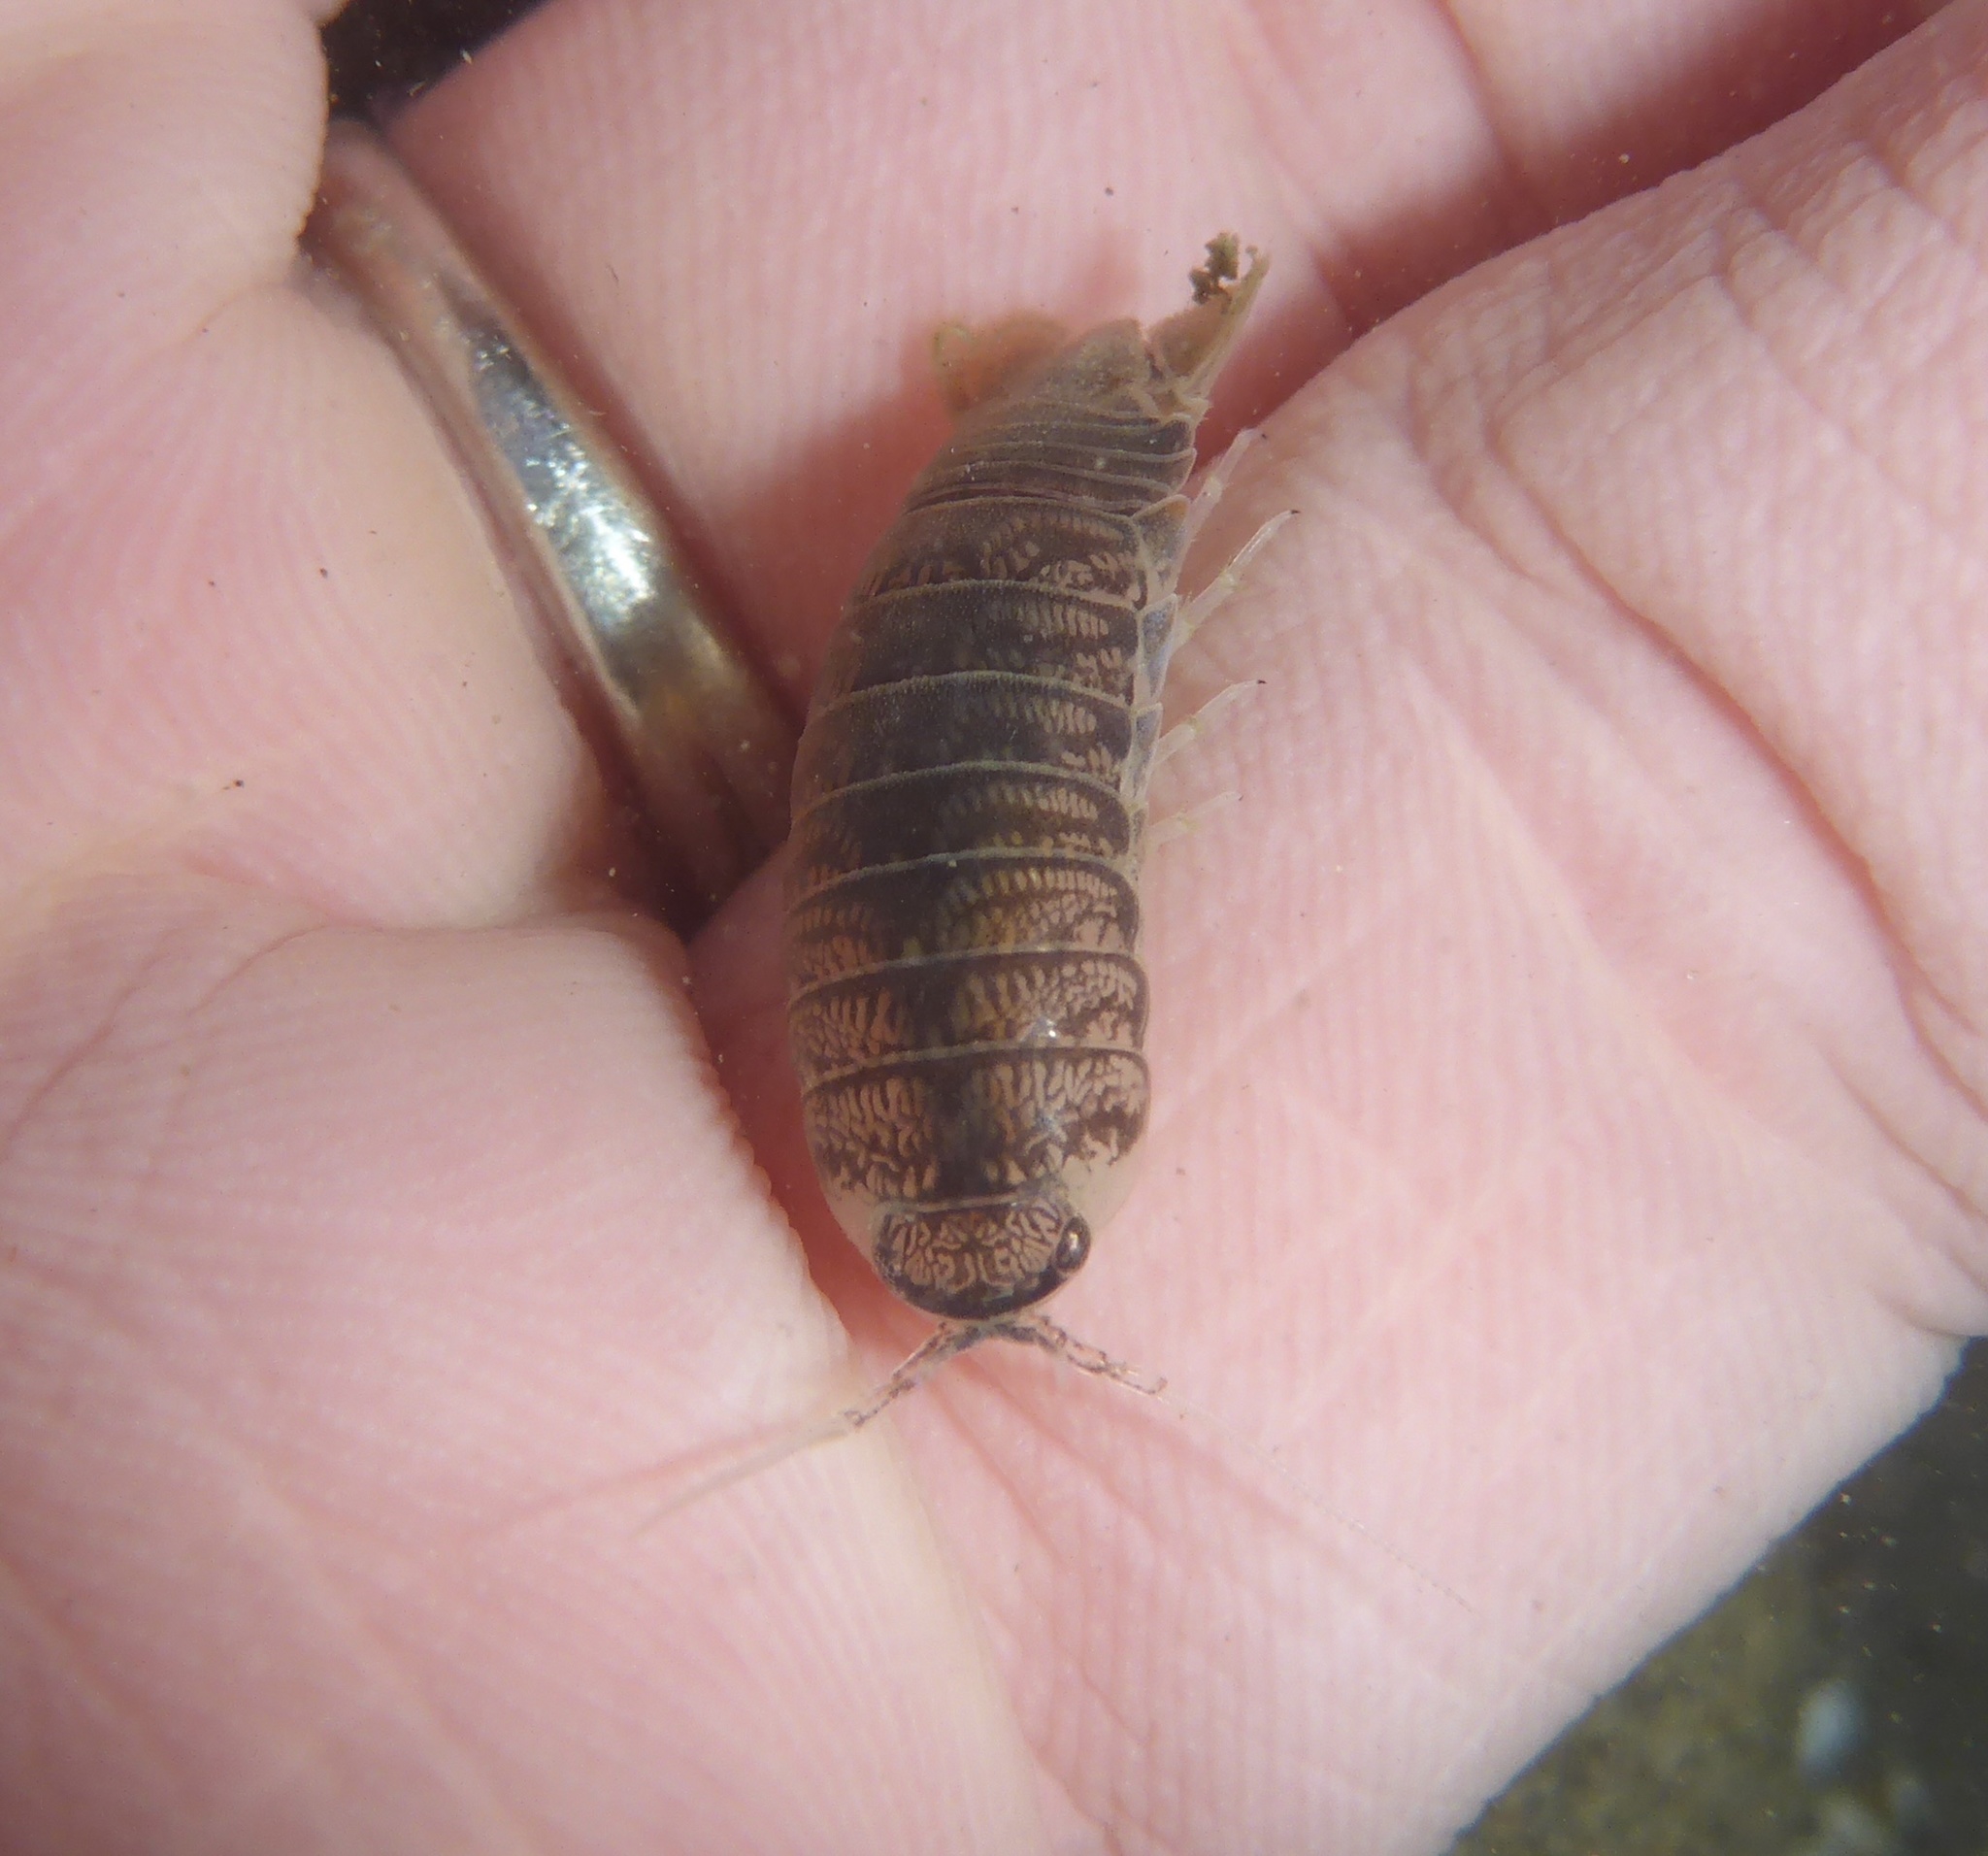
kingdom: Animalia
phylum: Arthropoda
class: Malacostraca
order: Isopoda
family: Cirolanidae
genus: Cirolana
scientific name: Cirolana harfordi
